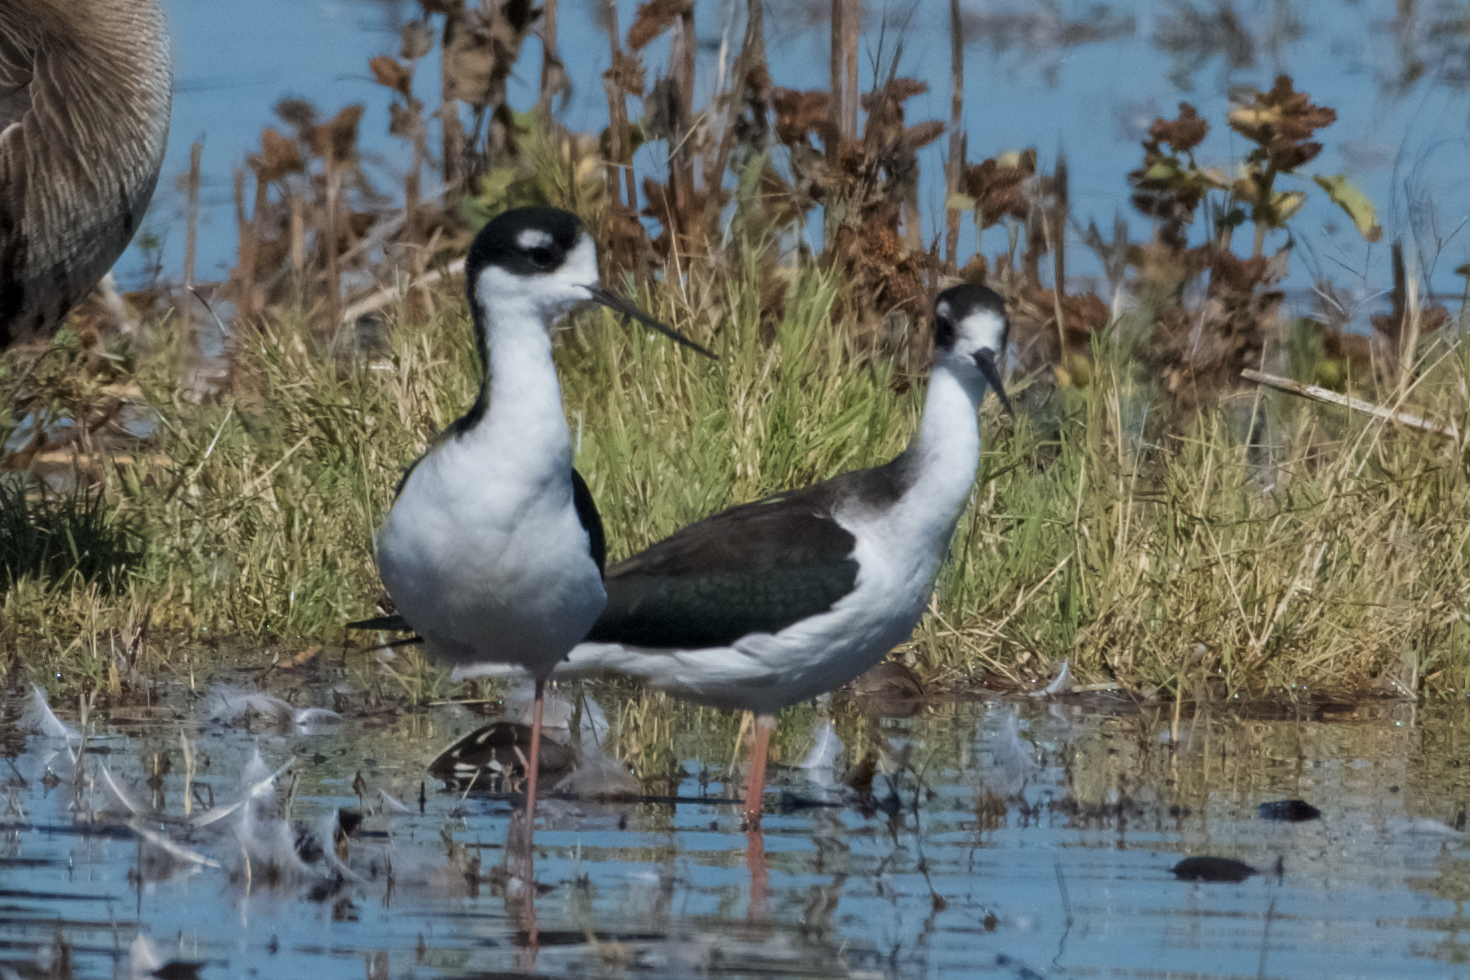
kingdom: Animalia
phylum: Chordata
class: Aves
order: Charadriiformes
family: Recurvirostridae
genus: Himantopus
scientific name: Himantopus mexicanus
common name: Black-necked stilt
